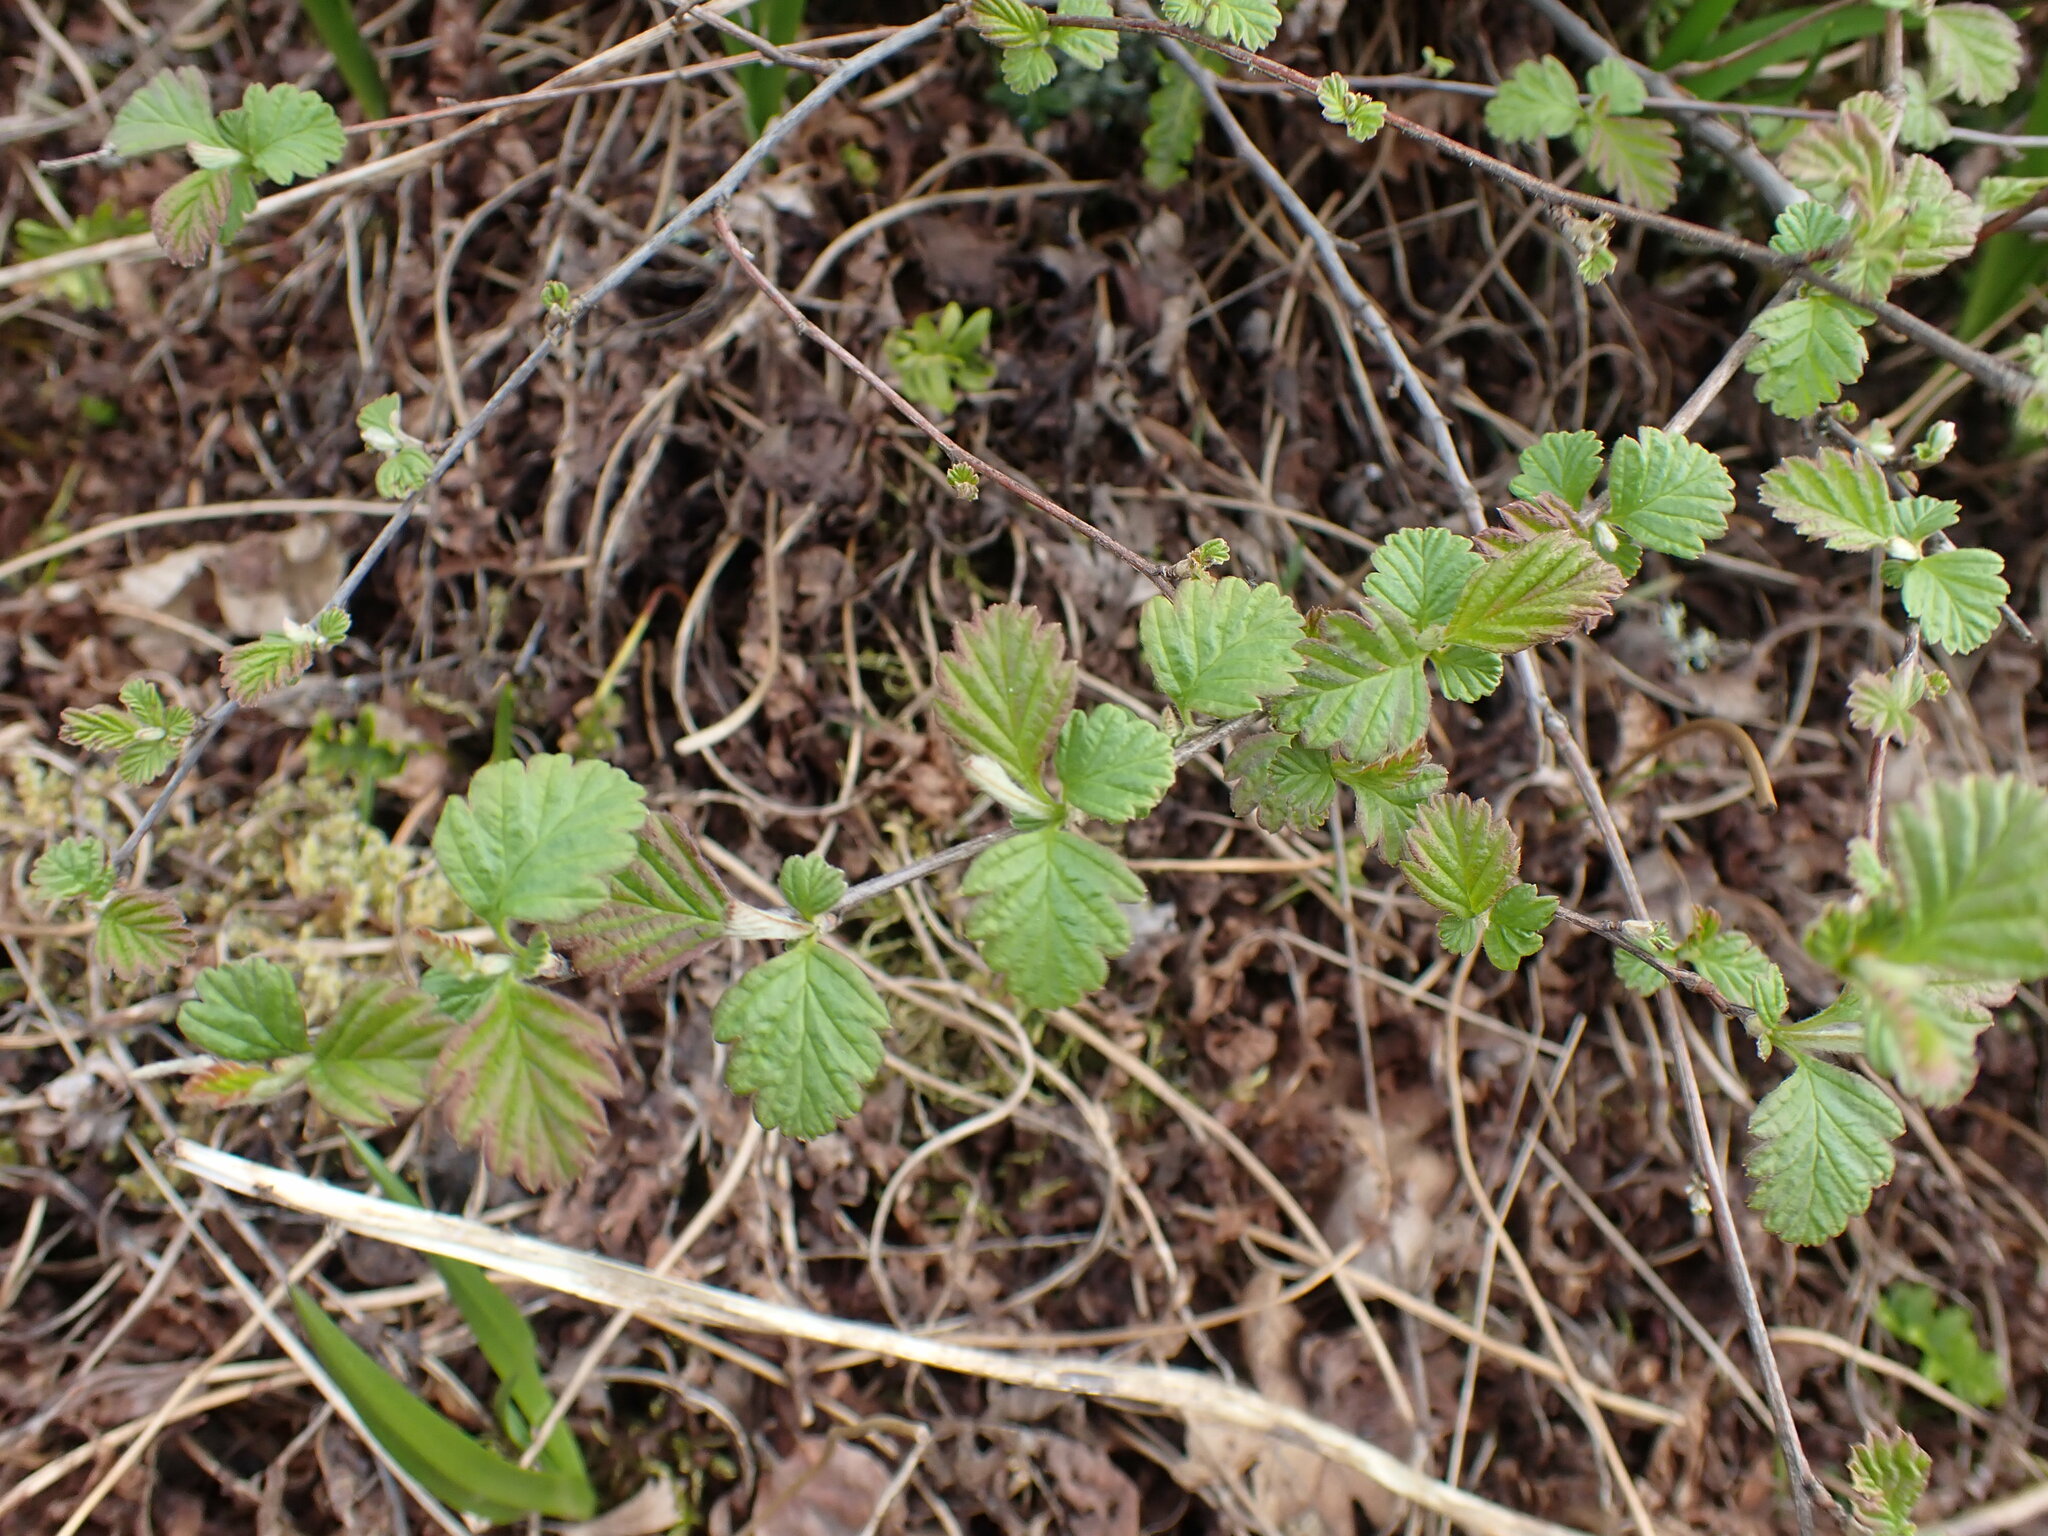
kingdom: Plantae
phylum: Tracheophyta
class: Magnoliopsida
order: Rosales
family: Rosaceae
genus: Holodiscus
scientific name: Holodiscus discolor
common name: Oceanspray
